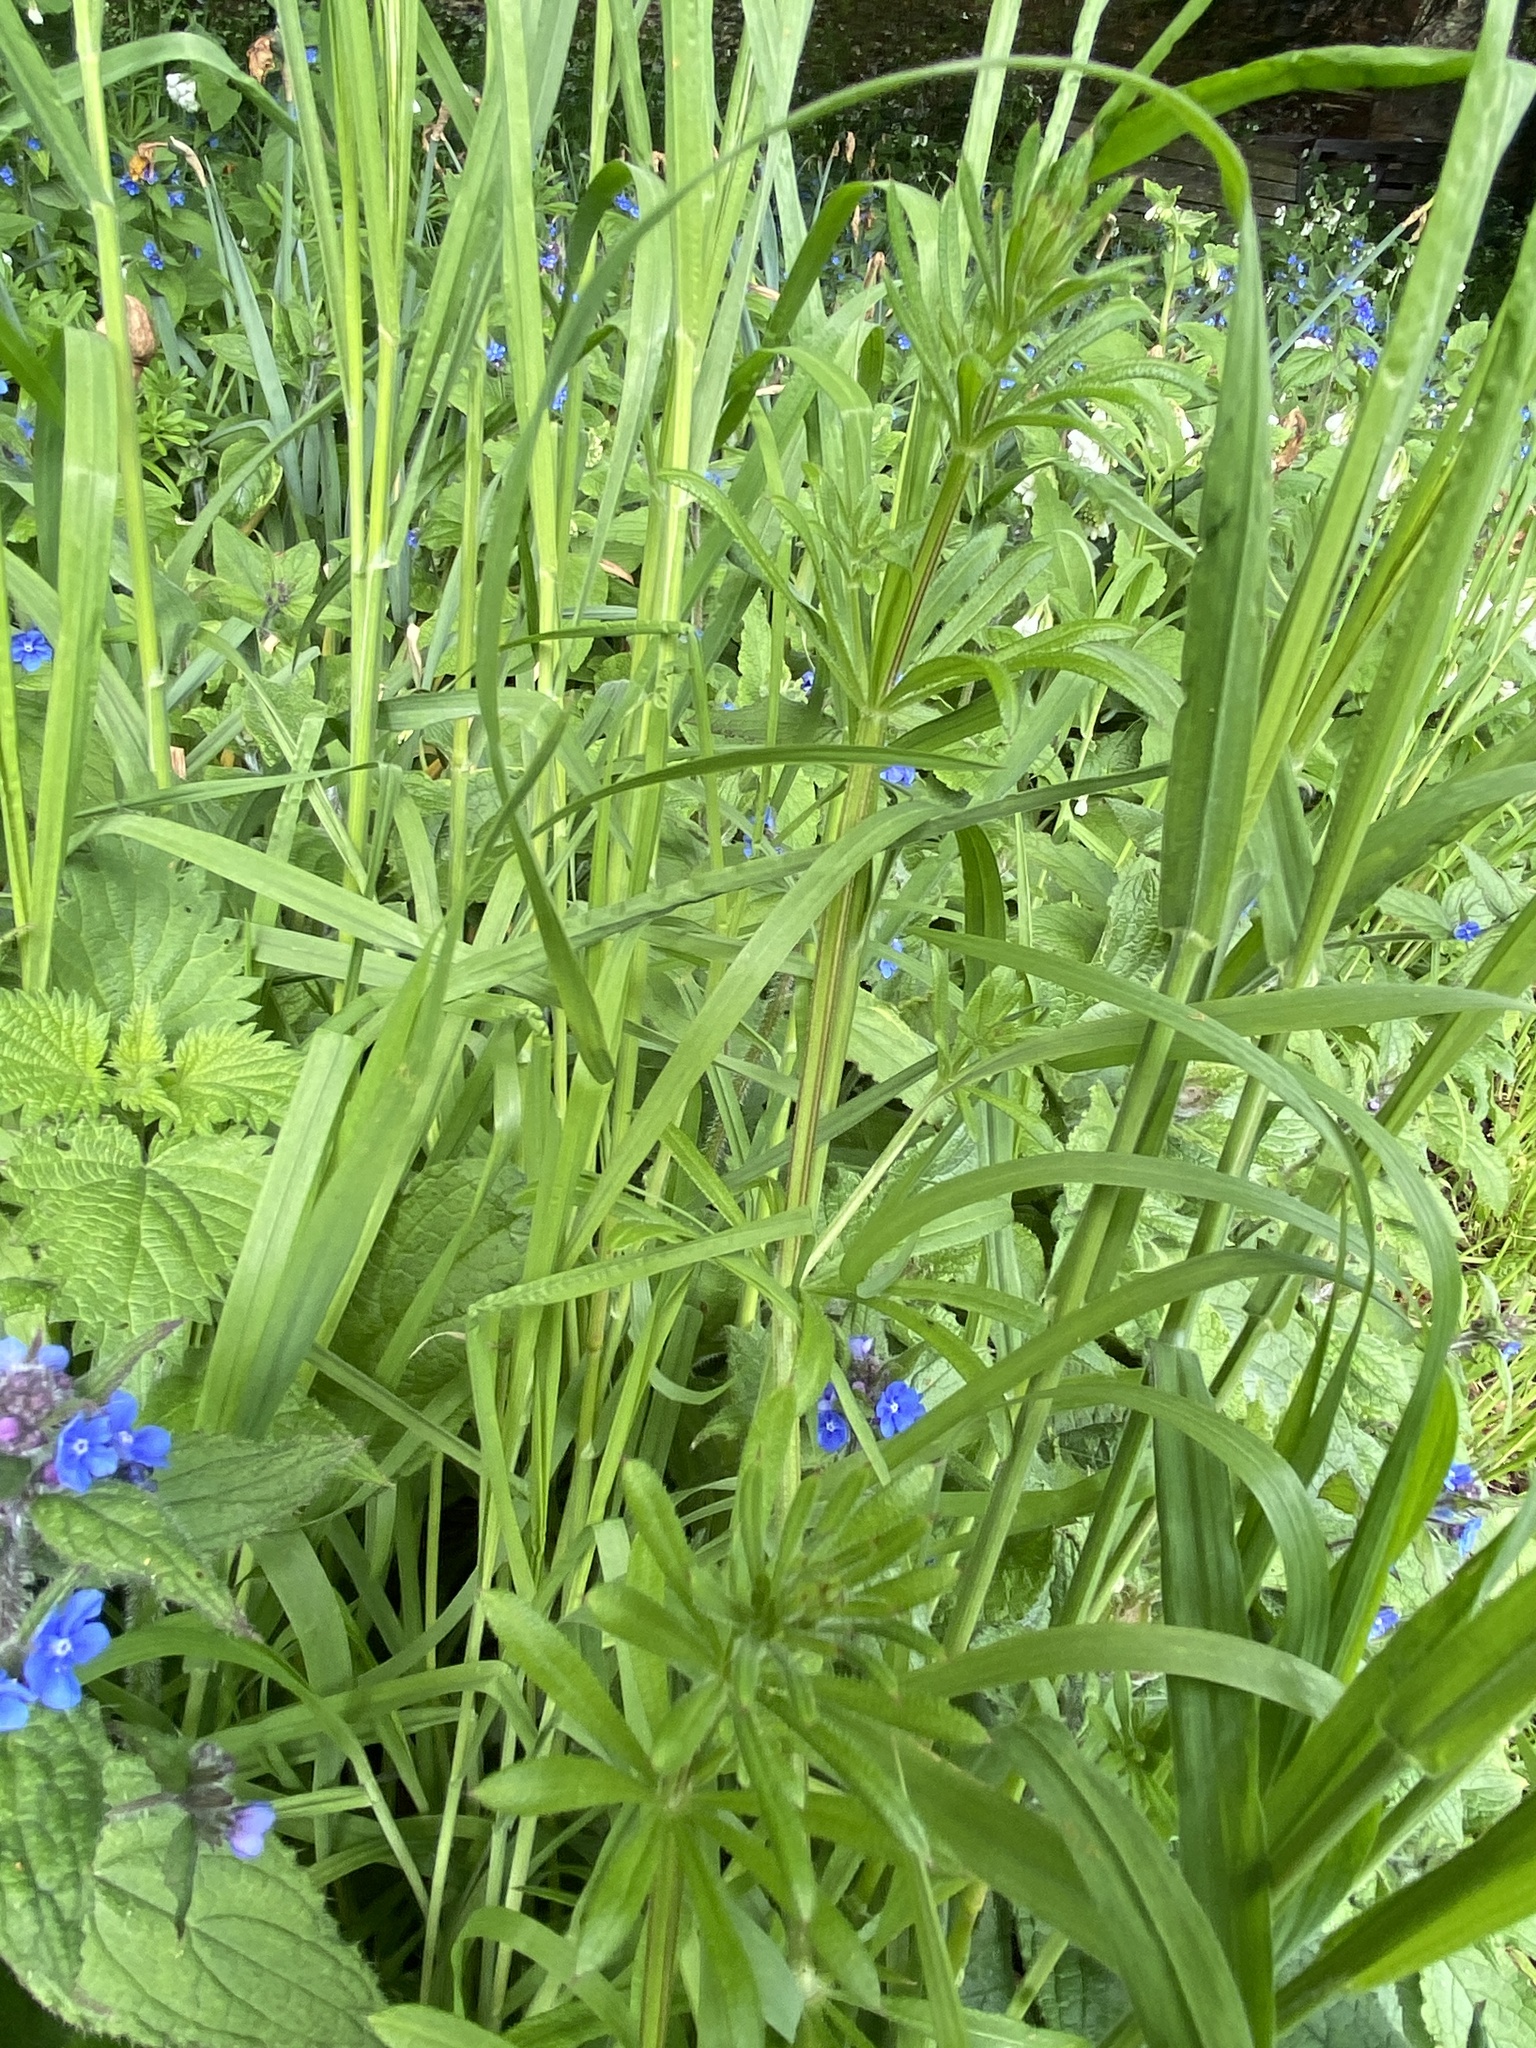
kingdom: Plantae
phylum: Tracheophyta
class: Magnoliopsida
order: Gentianales
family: Rubiaceae
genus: Galium
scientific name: Galium aparine
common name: Cleavers
